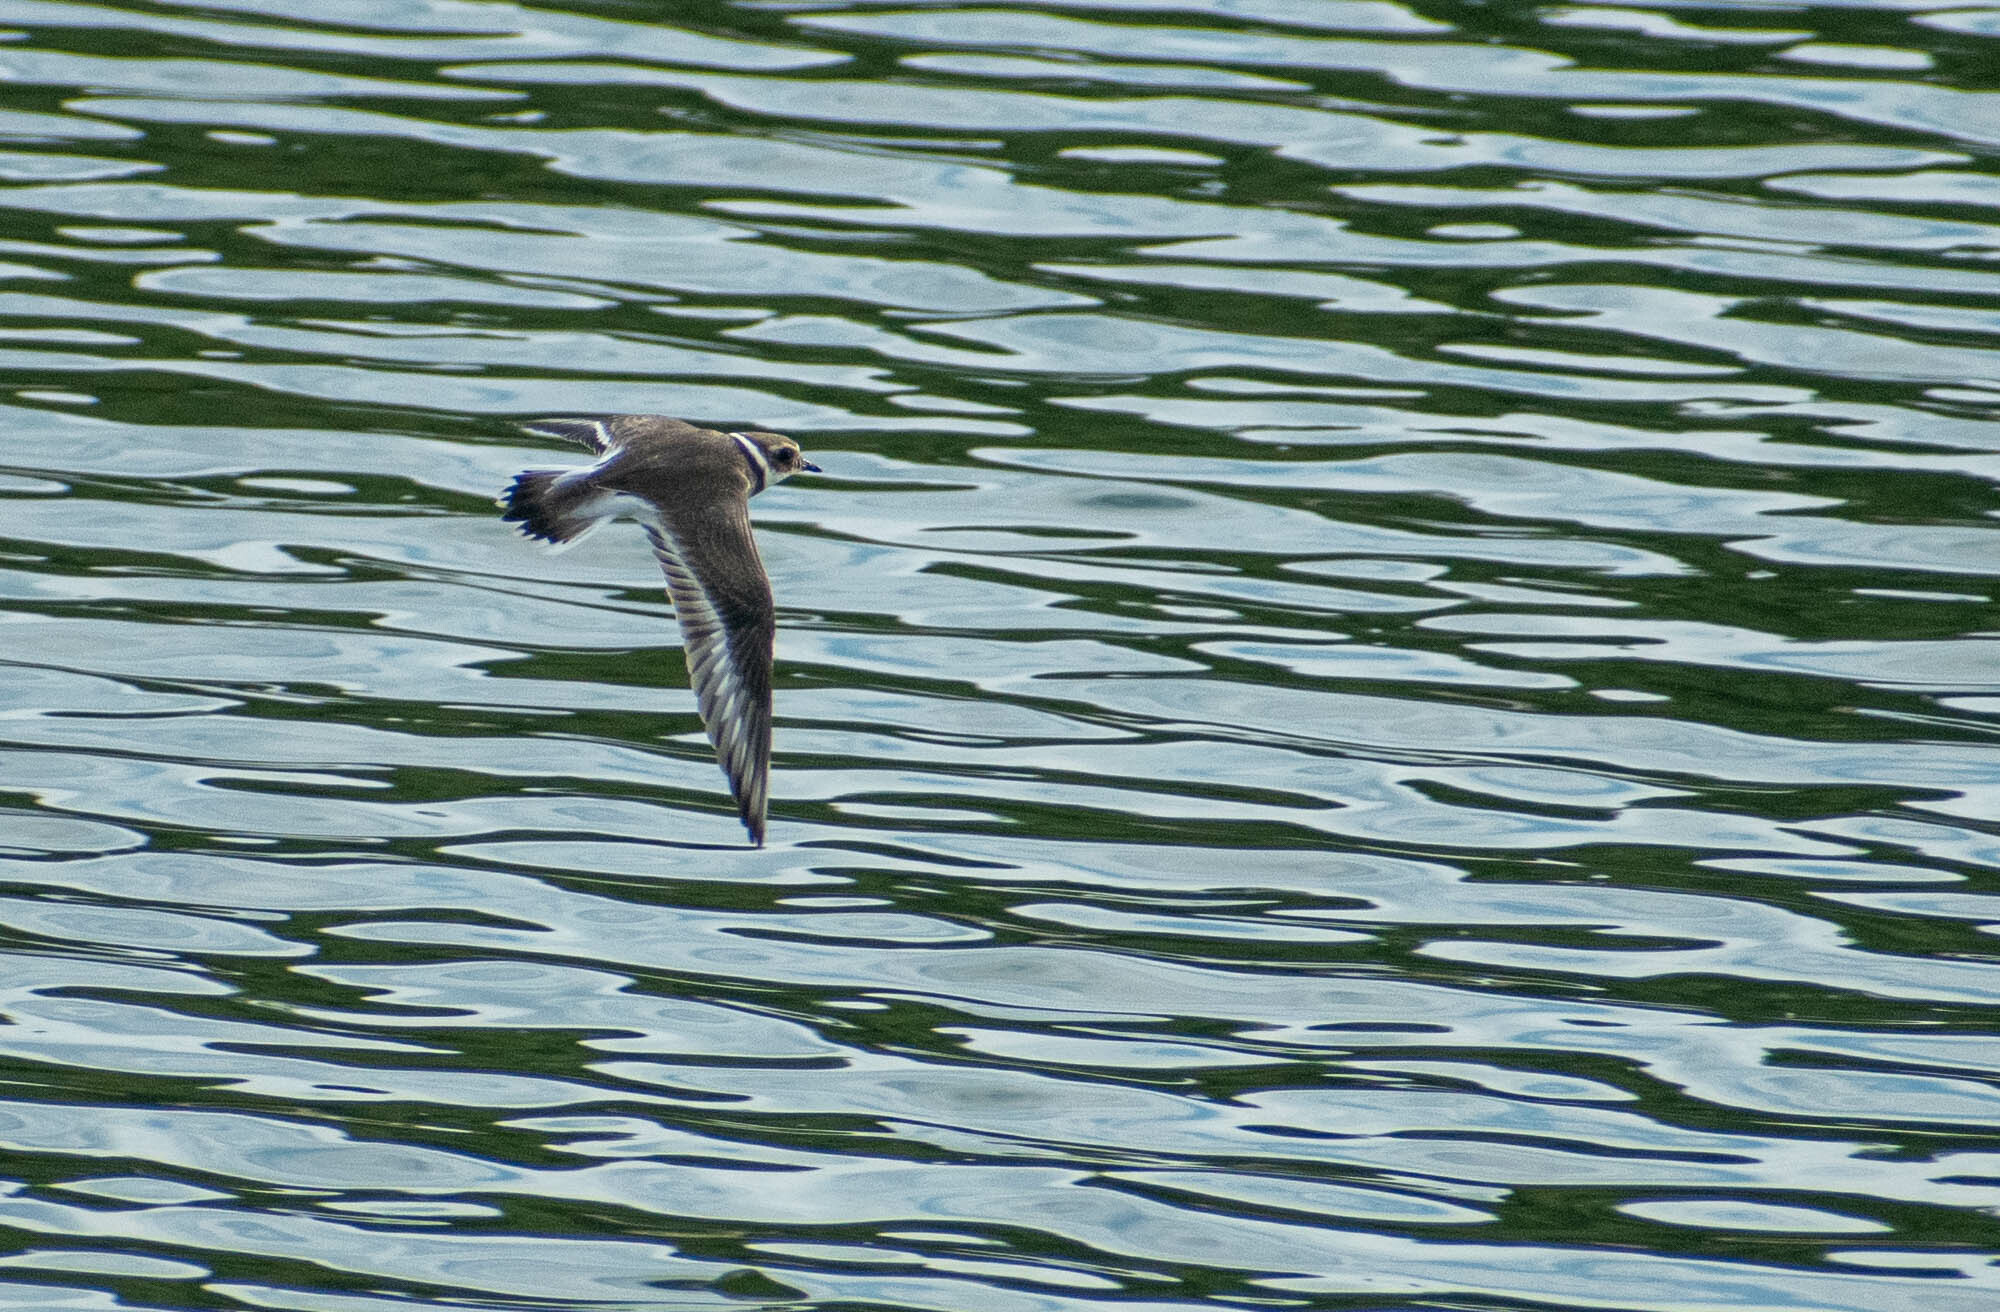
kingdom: Animalia
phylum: Chordata
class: Aves
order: Charadriiformes
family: Charadriidae
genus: Charadrius
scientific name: Charadrius hiaticula
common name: Common ringed plover
